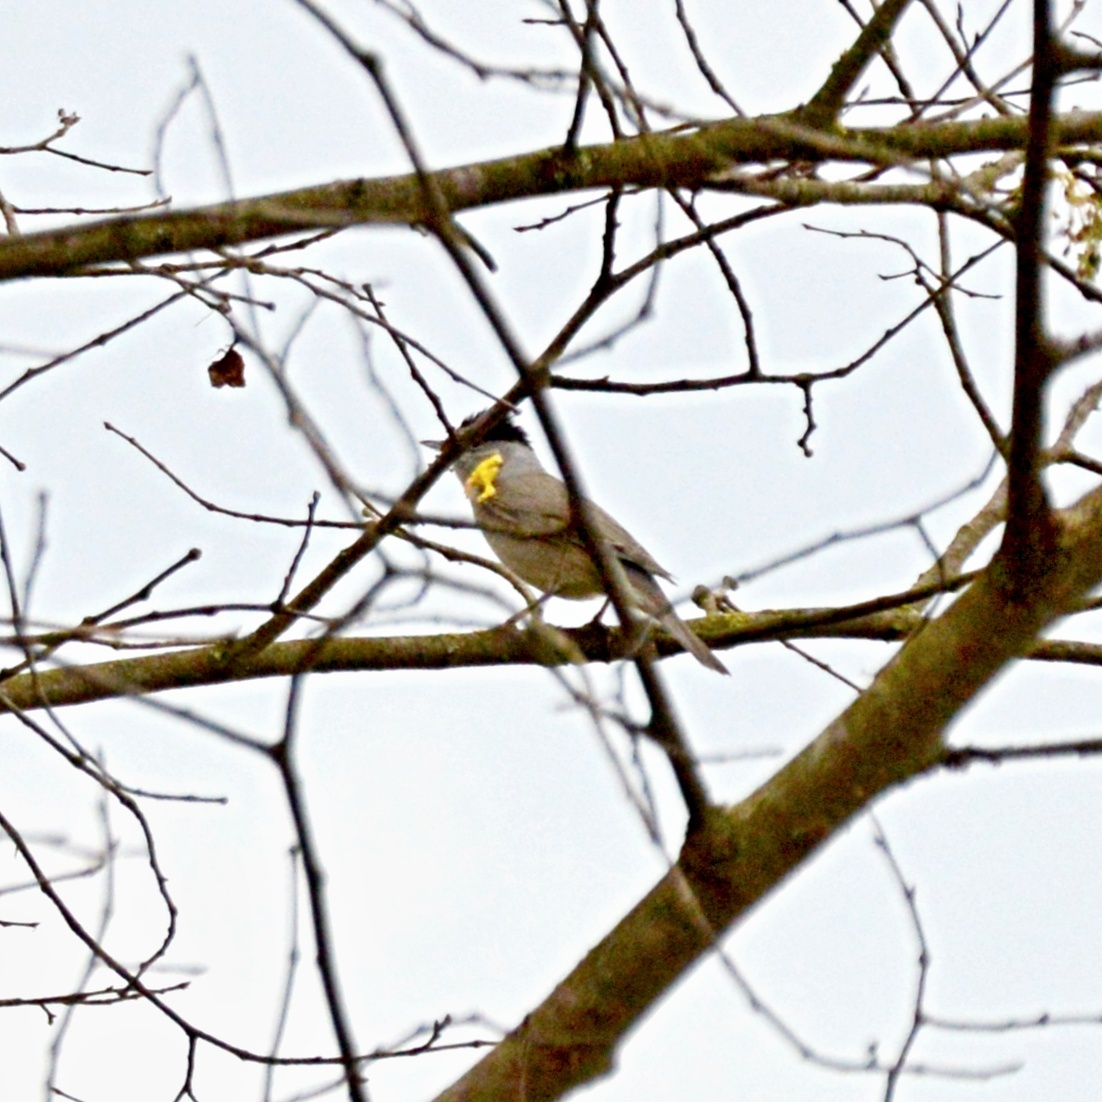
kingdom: Animalia
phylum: Chordata
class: Aves
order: Passeriformes
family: Sylviidae
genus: Sylvia
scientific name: Sylvia atricapilla
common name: Eurasian blackcap
